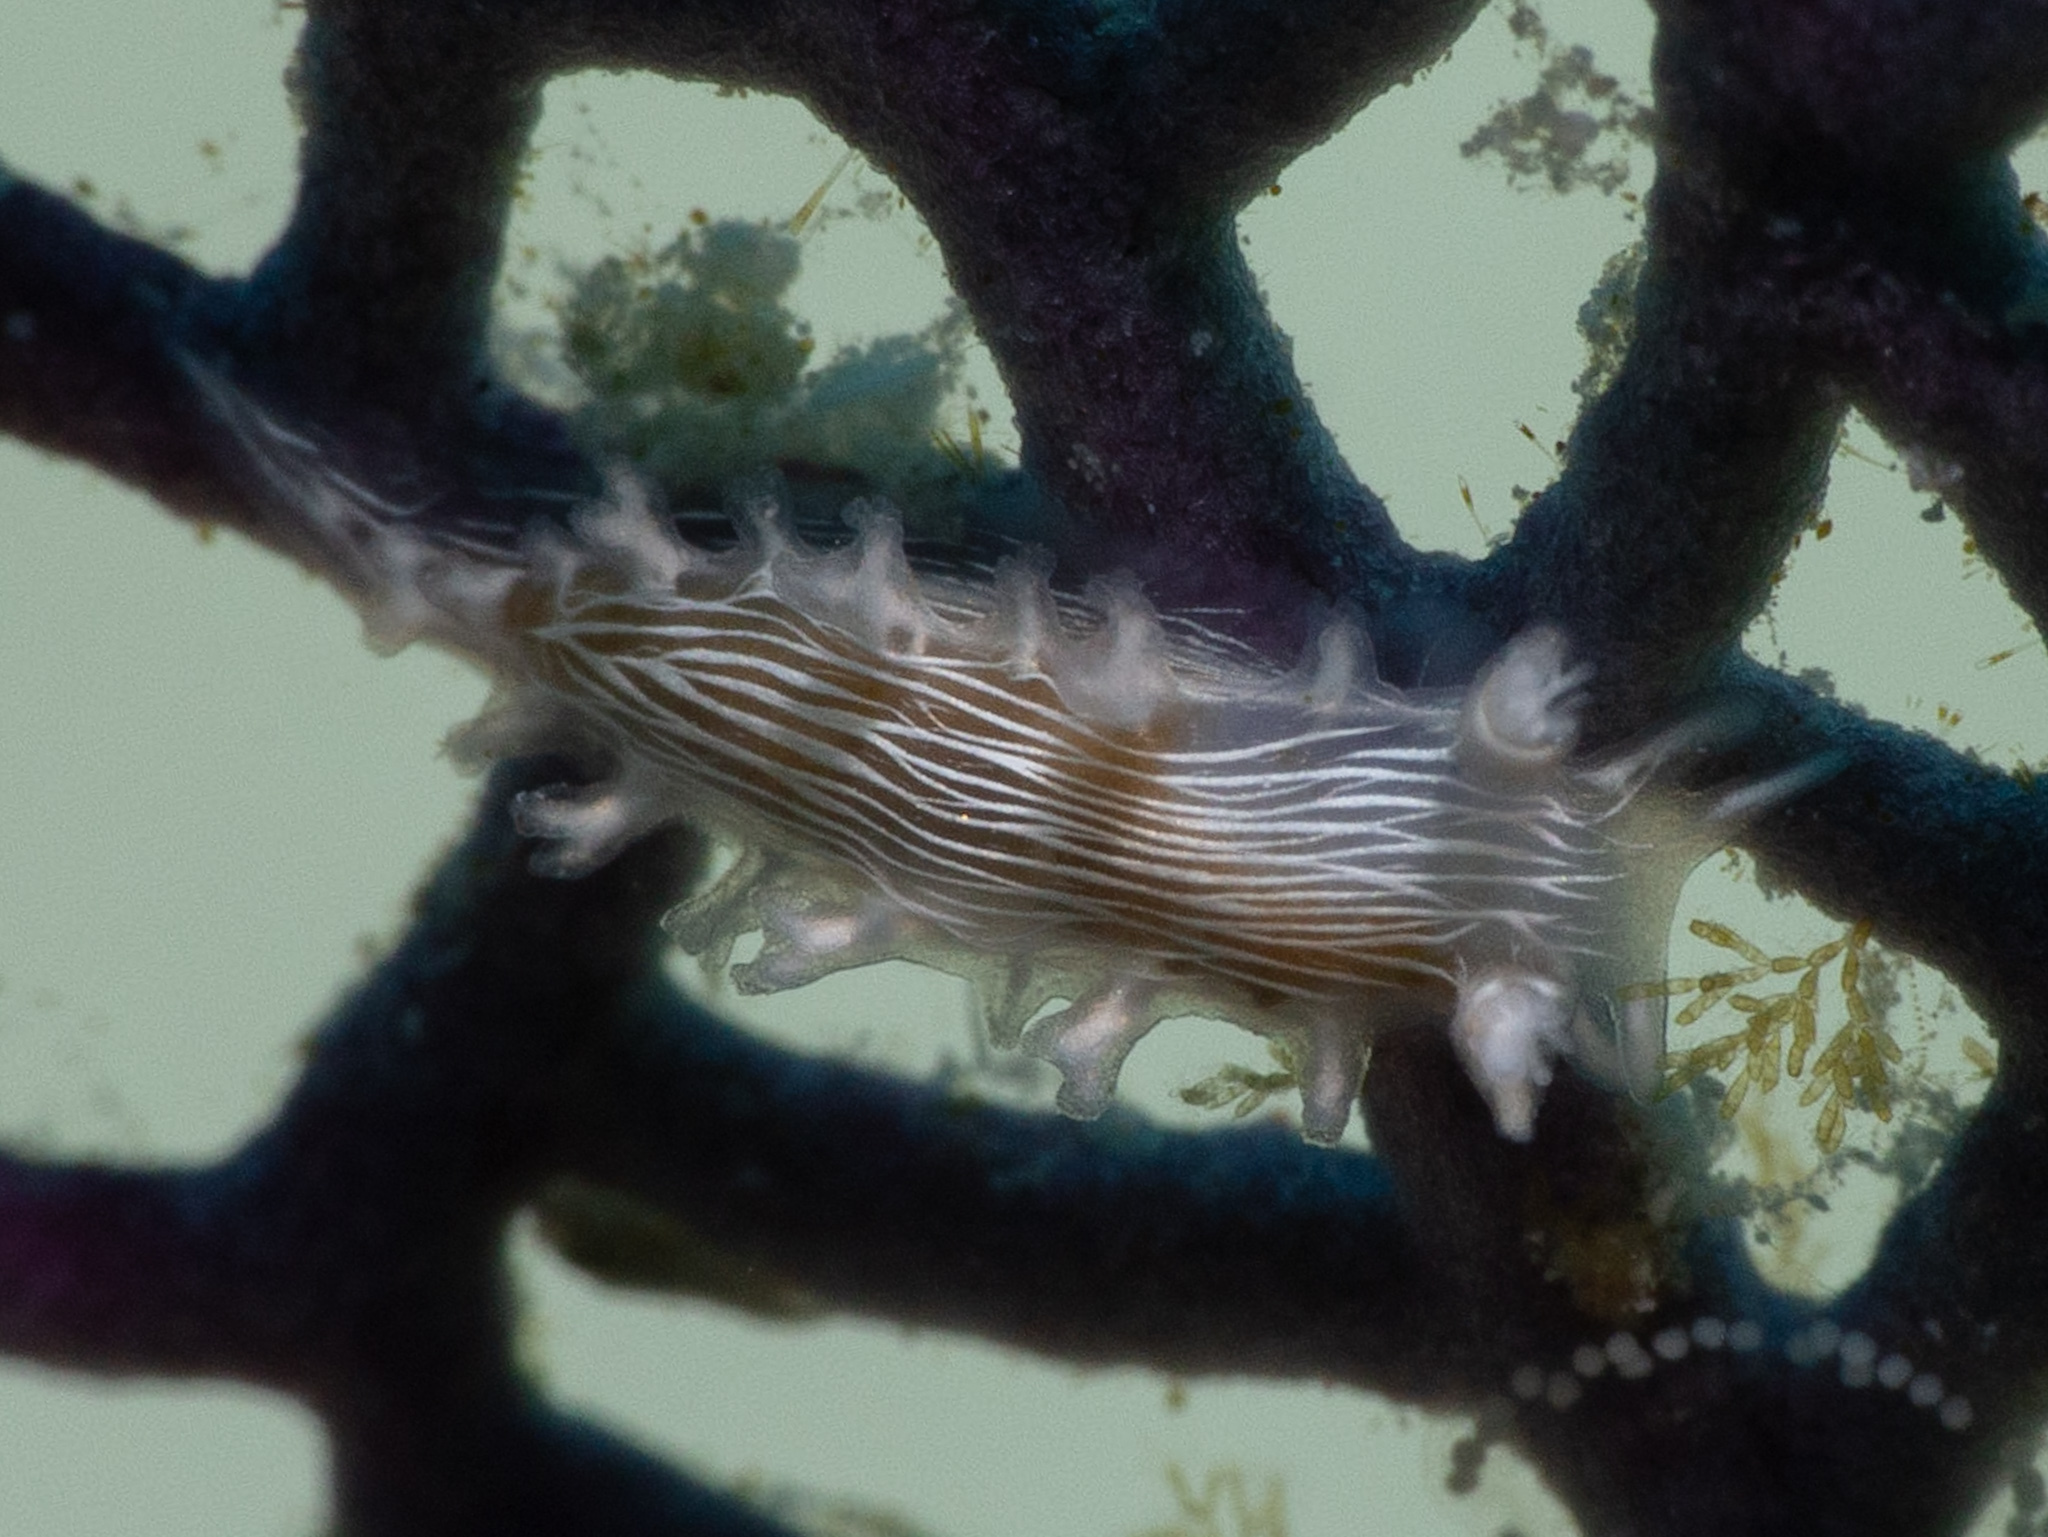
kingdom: Animalia
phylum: Mollusca
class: Gastropoda
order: Nudibranchia
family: Tritoniidae
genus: Tritonicula
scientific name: Tritonicula hamnerorum
